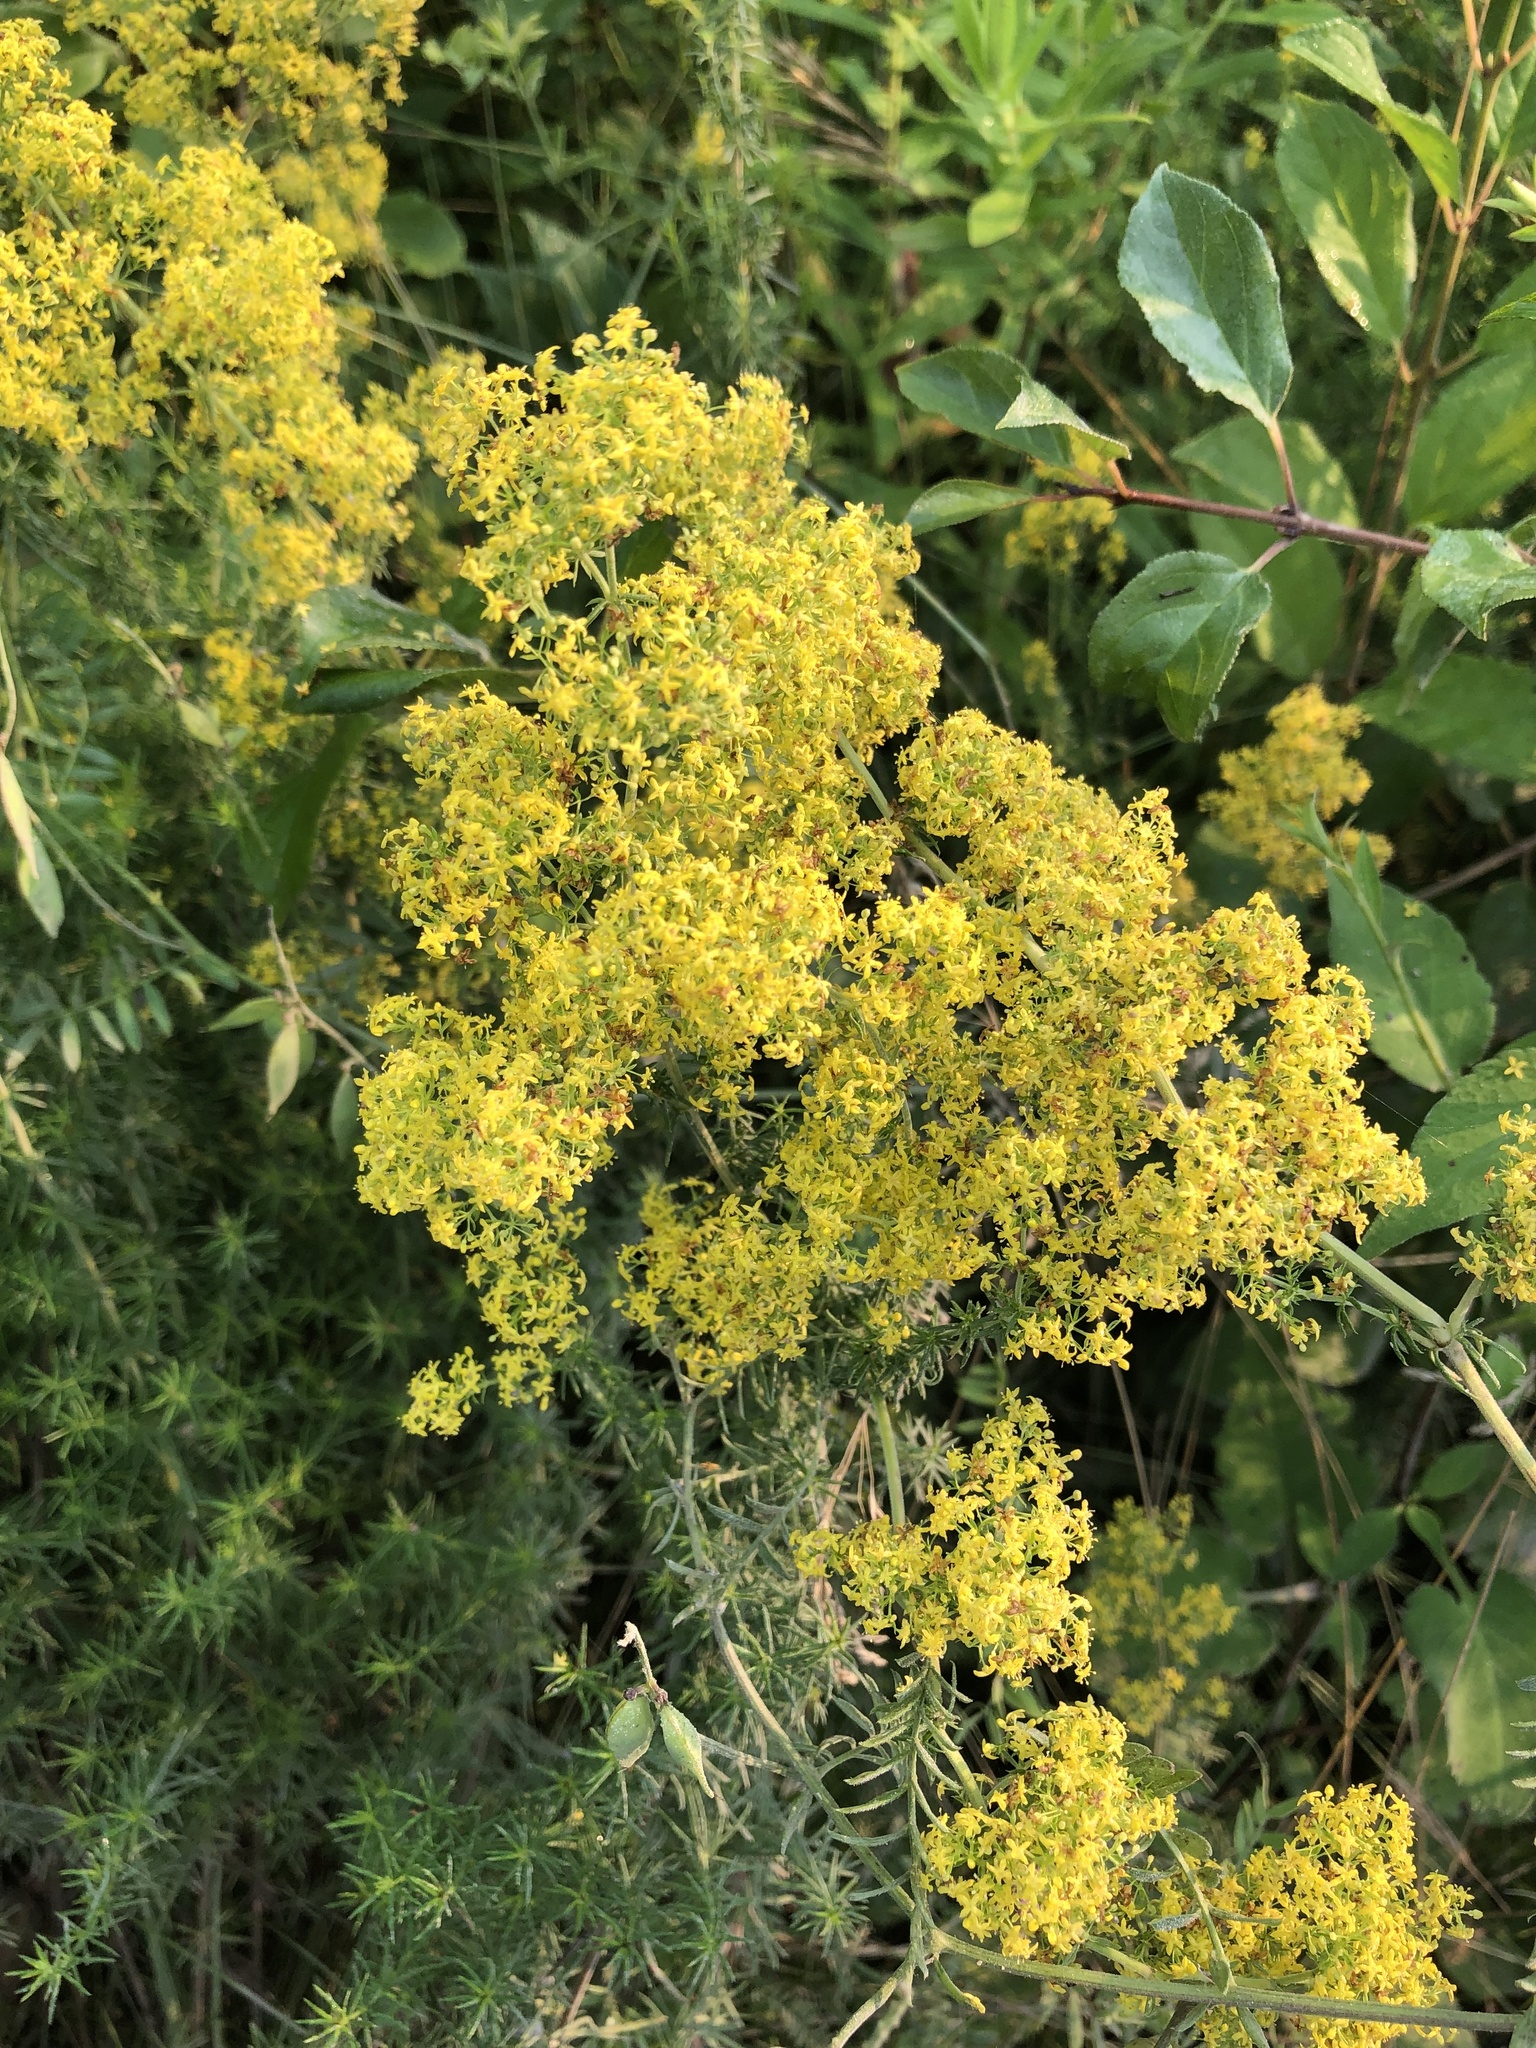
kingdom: Plantae
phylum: Tracheophyta
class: Magnoliopsida
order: Gentianales
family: Rubiaceae
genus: Galium
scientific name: Galium verum
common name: Lady's bedstraw
